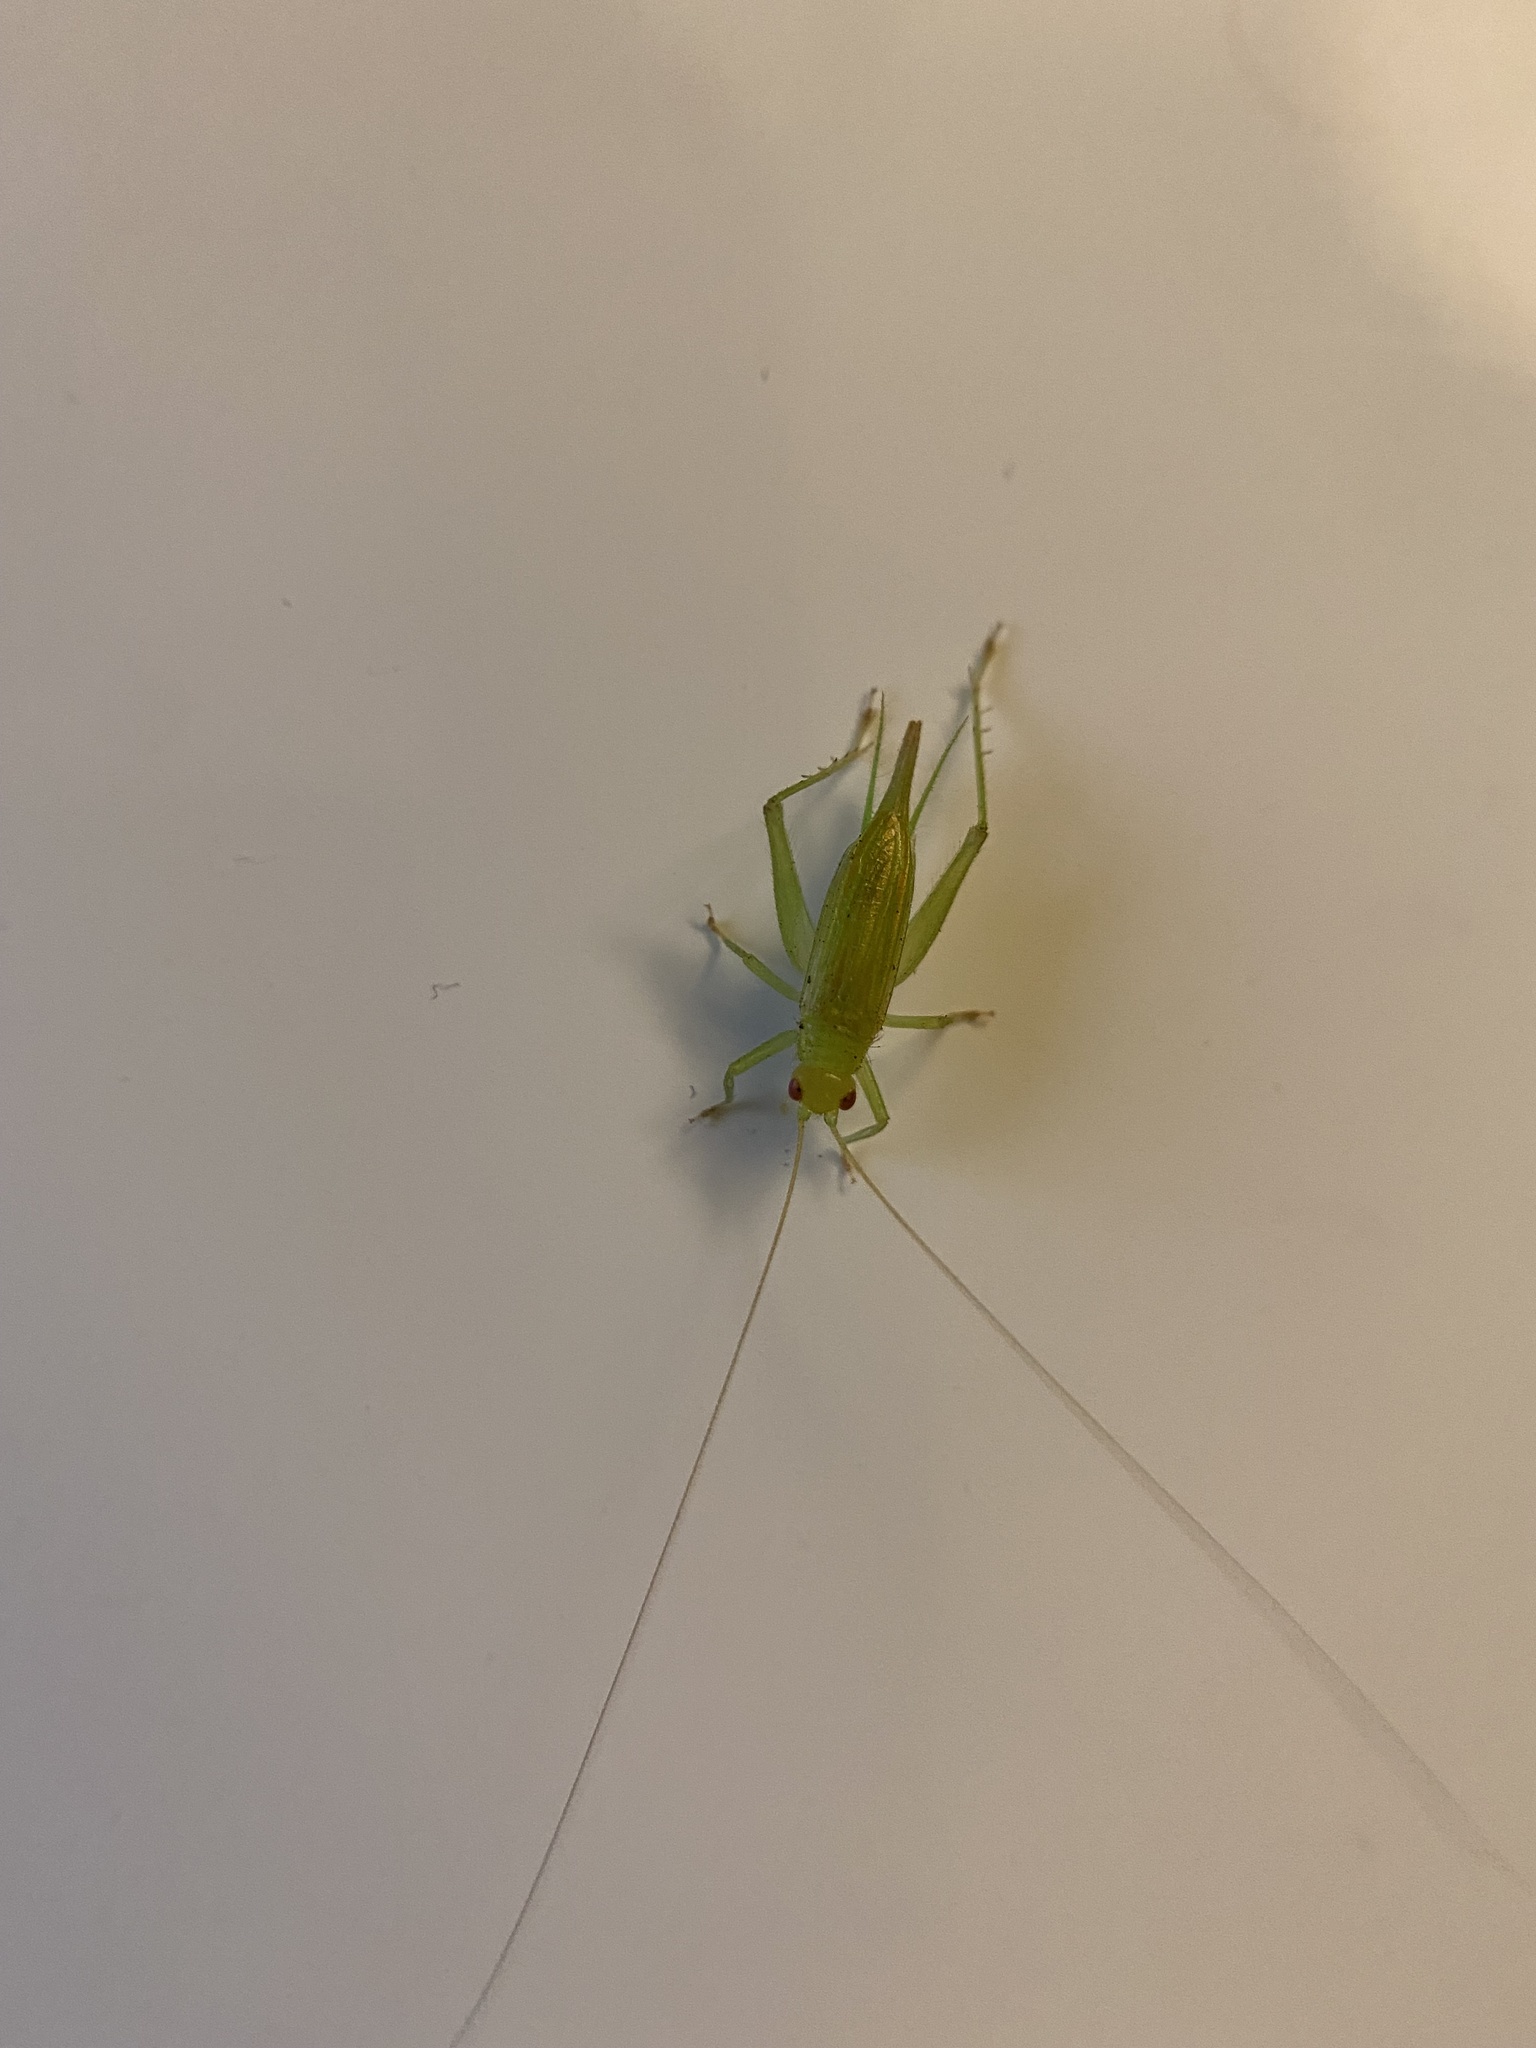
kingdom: Animalia
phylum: Arthropoda
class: Insecta
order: Orthoptera
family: Trigonidiidae
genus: Cyrtoxipha
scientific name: Cyrtoxipha columbiana
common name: Columbian trig
